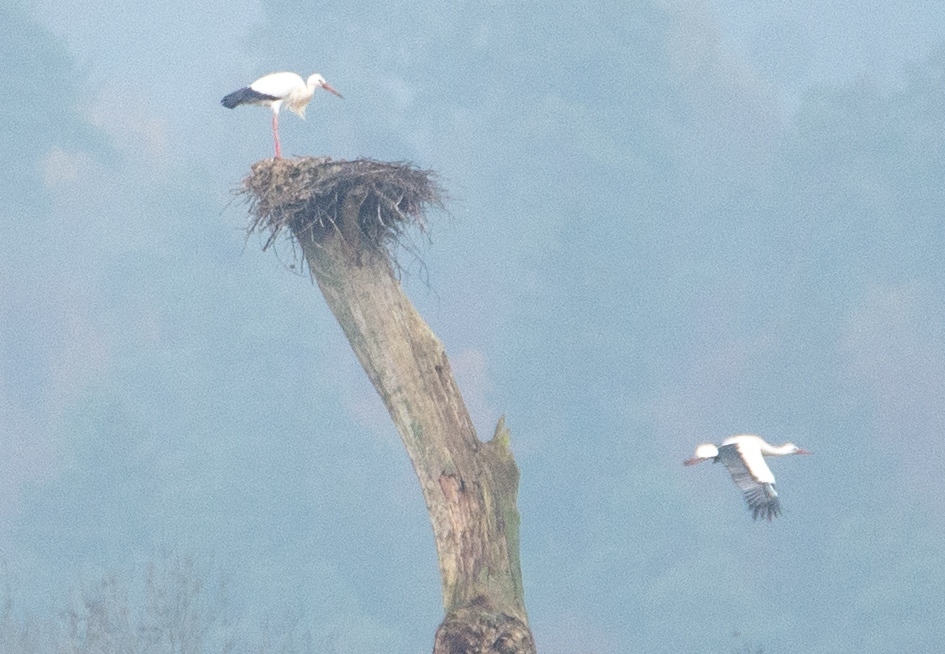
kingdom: Animalia
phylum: Chordata
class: Aves
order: Ciconiiformes
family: Ciconiidae
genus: Ciconia
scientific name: Ciconia ciconia
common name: White stork
